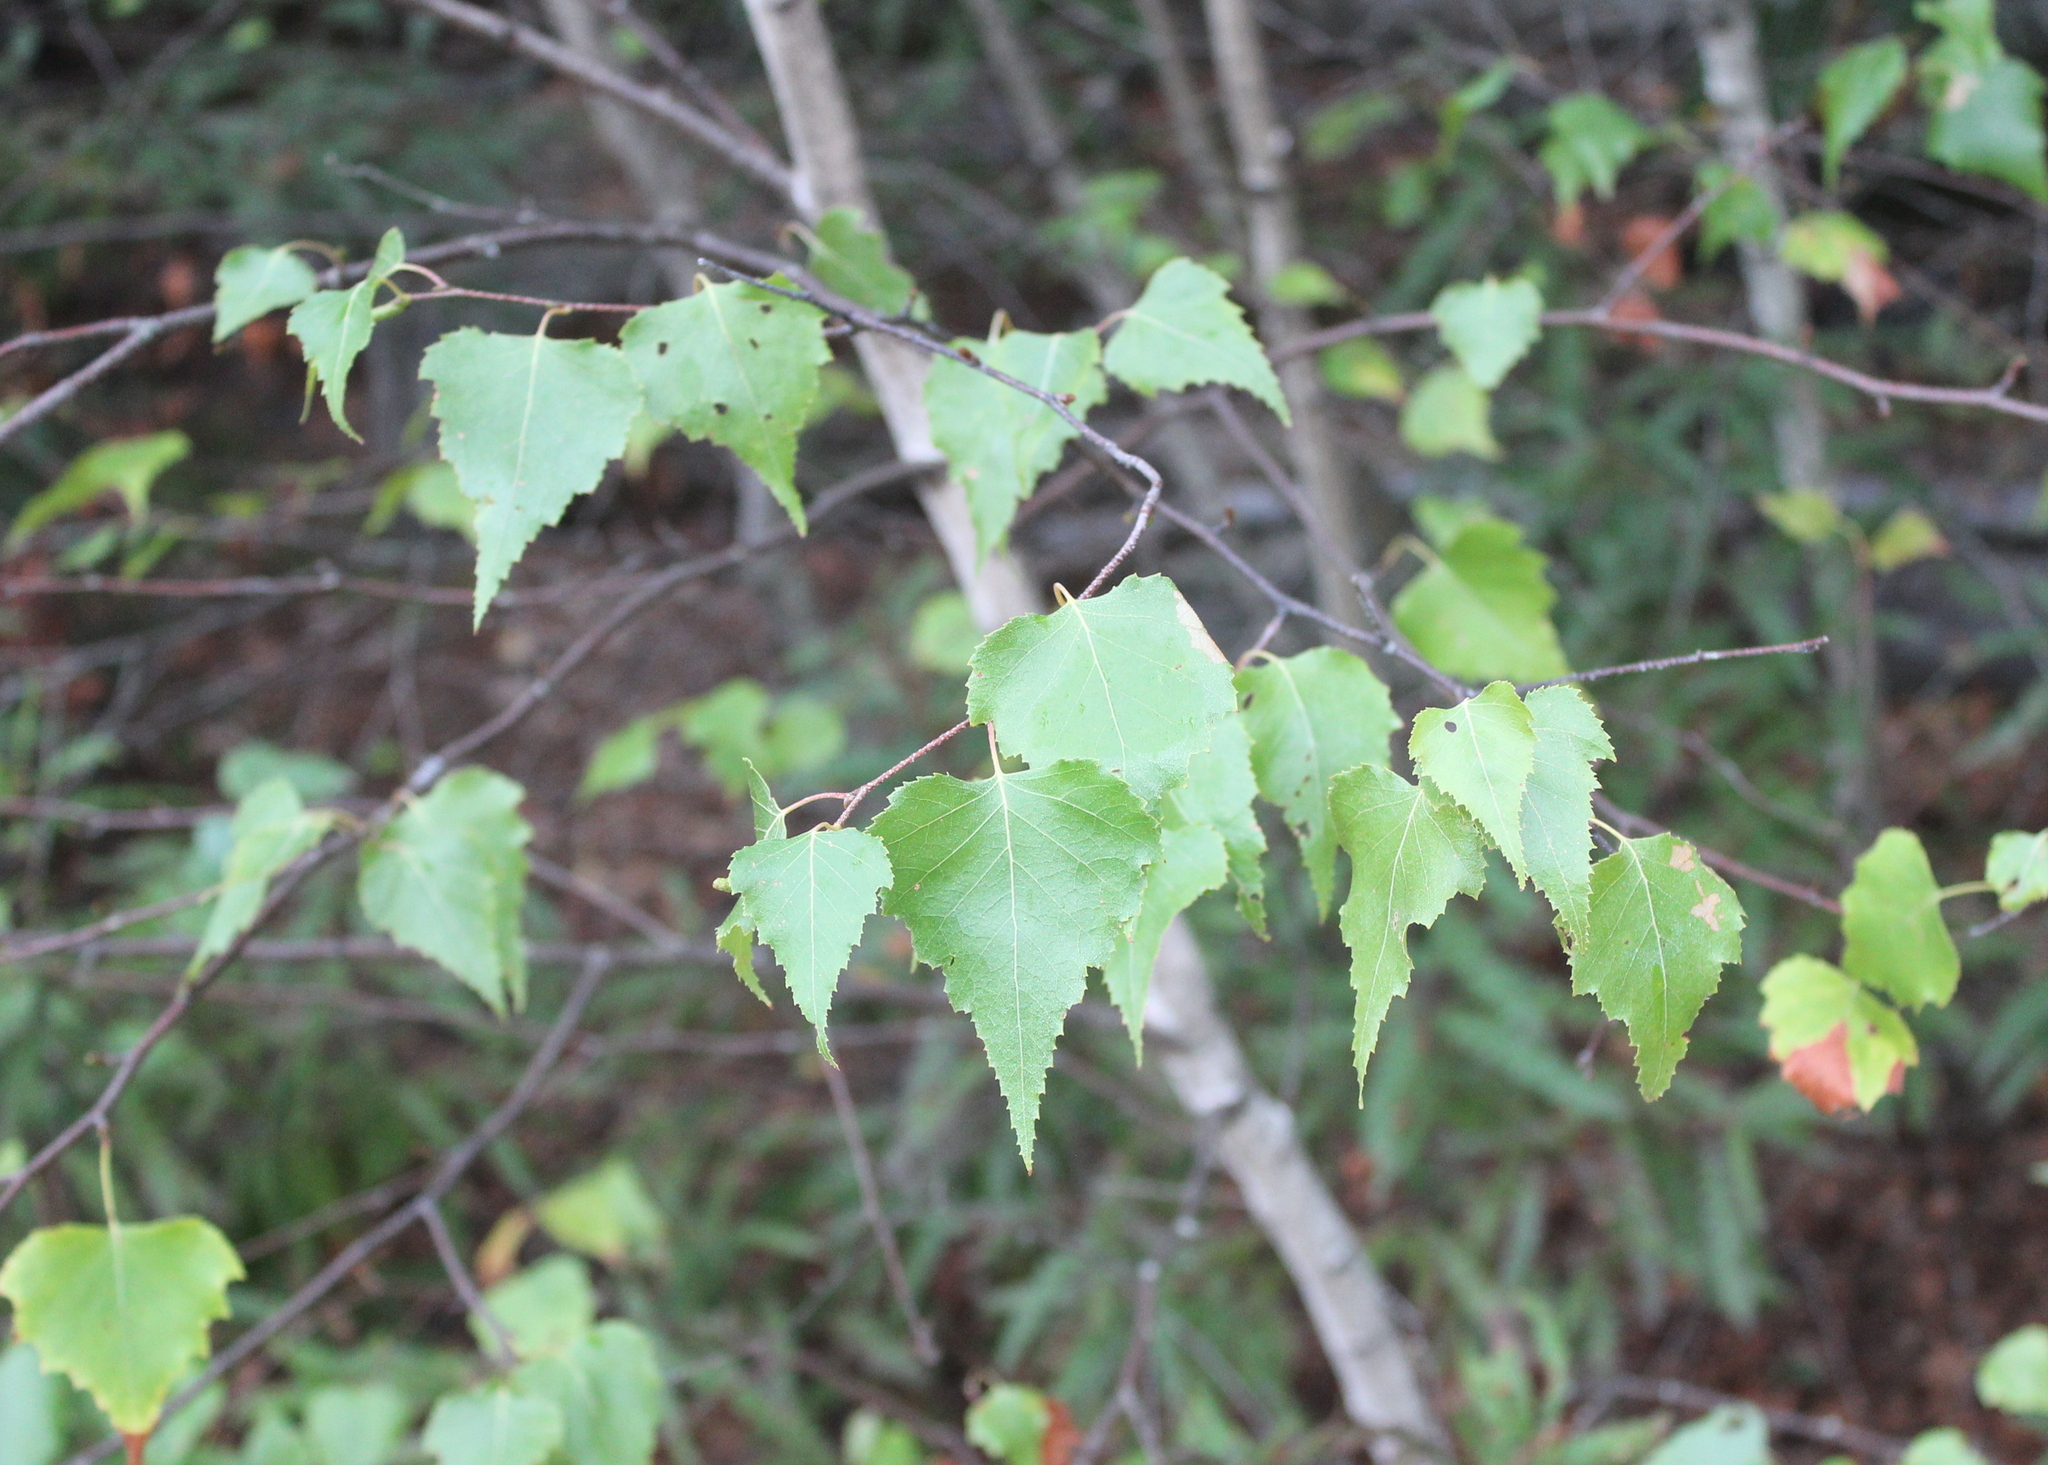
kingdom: Plantae
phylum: Tracheophyta
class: Magnoliopsida
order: Fagales
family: Betulaceae
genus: Betula
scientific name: Betula populifolia
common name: Fire birch
